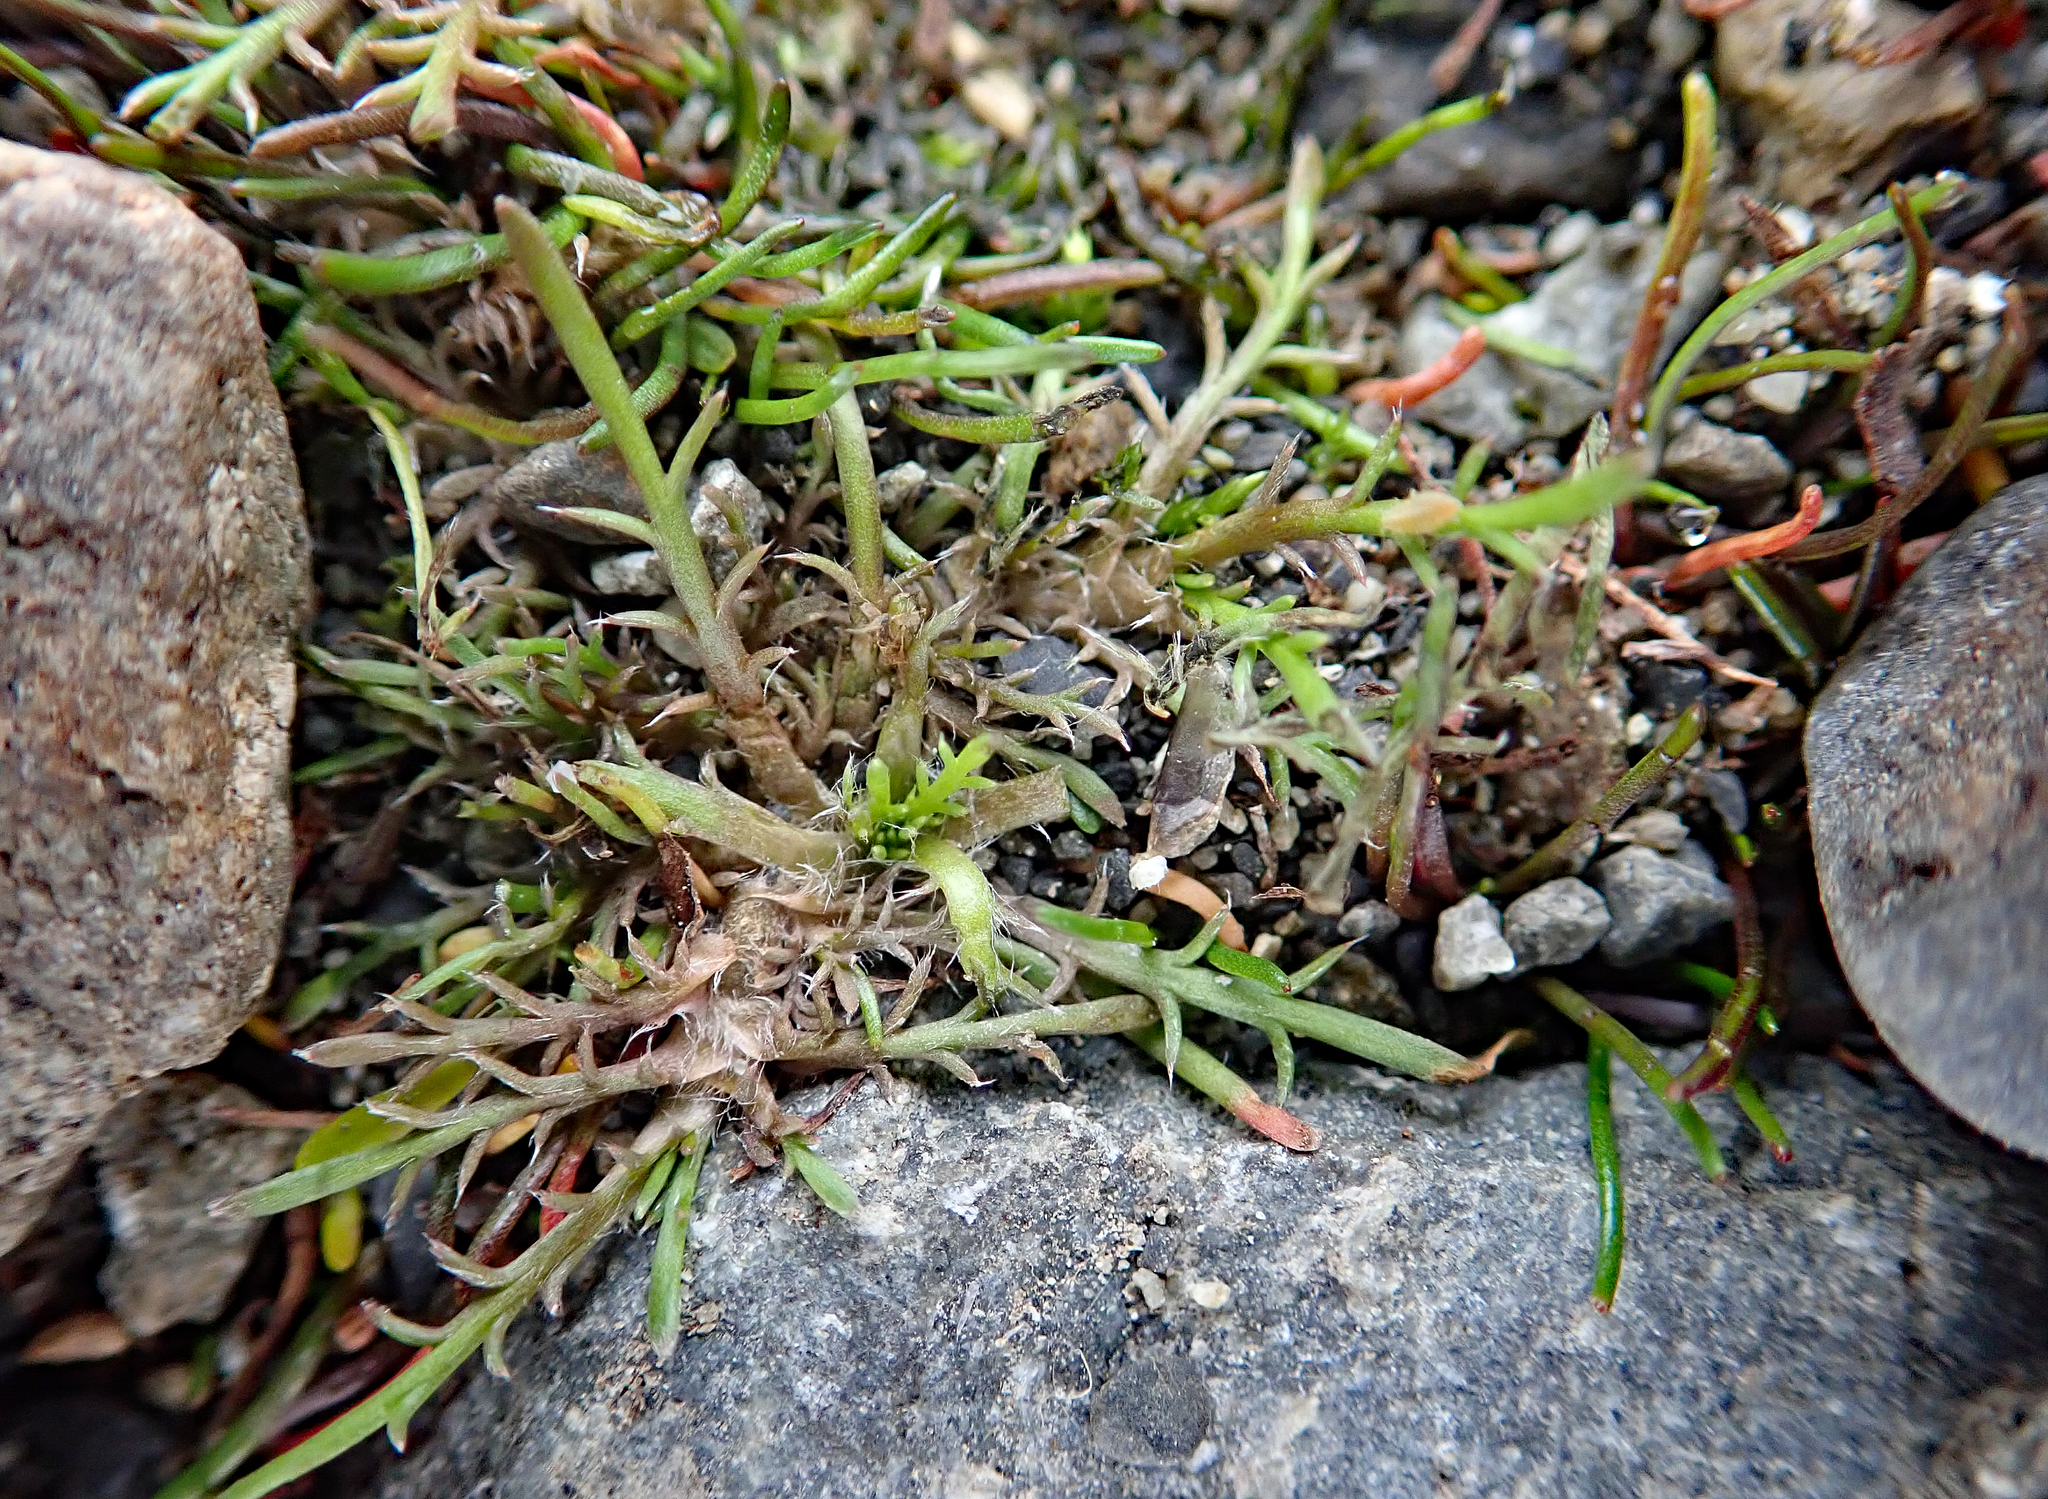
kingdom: Plantae
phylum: Tracheophyta
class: Magnoliopsida
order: Asterales
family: Asteraceae
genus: Leptinella
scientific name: Leptinella maniototo
